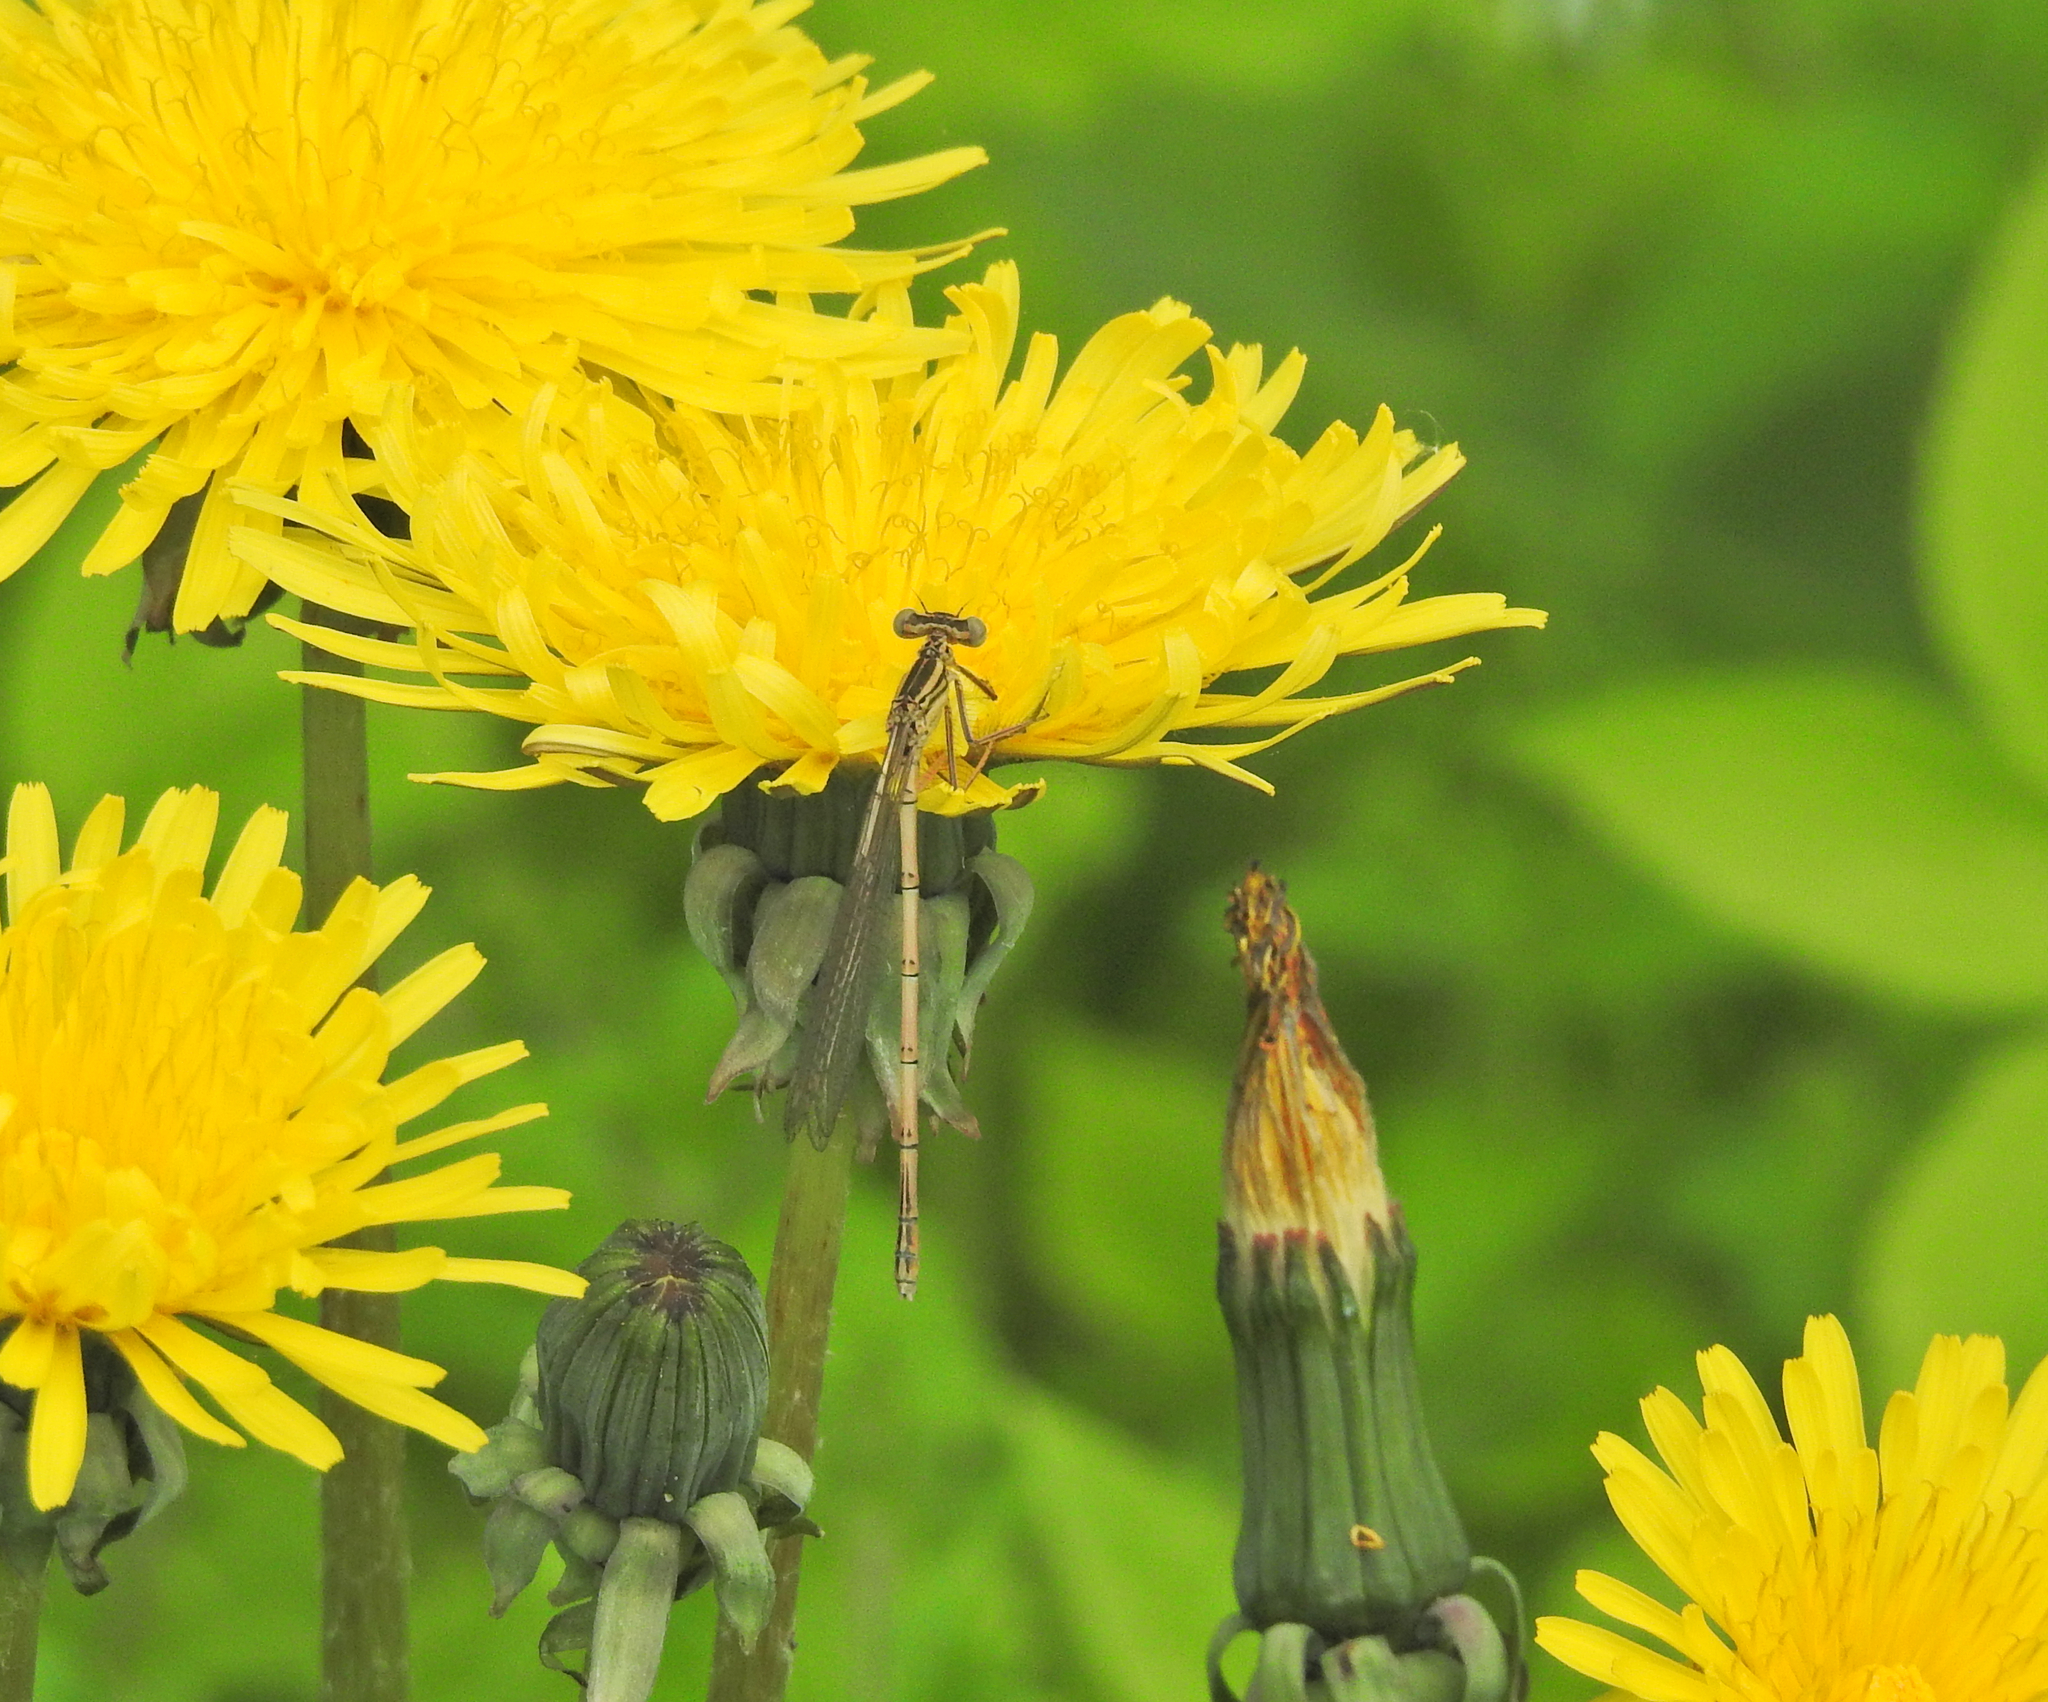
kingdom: Animalia
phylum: Arthropoda
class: Insecta
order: Odonata
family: Platycnemididae
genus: Platycnemis
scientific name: Platycnemis pennipes
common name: White-legged damselfly
